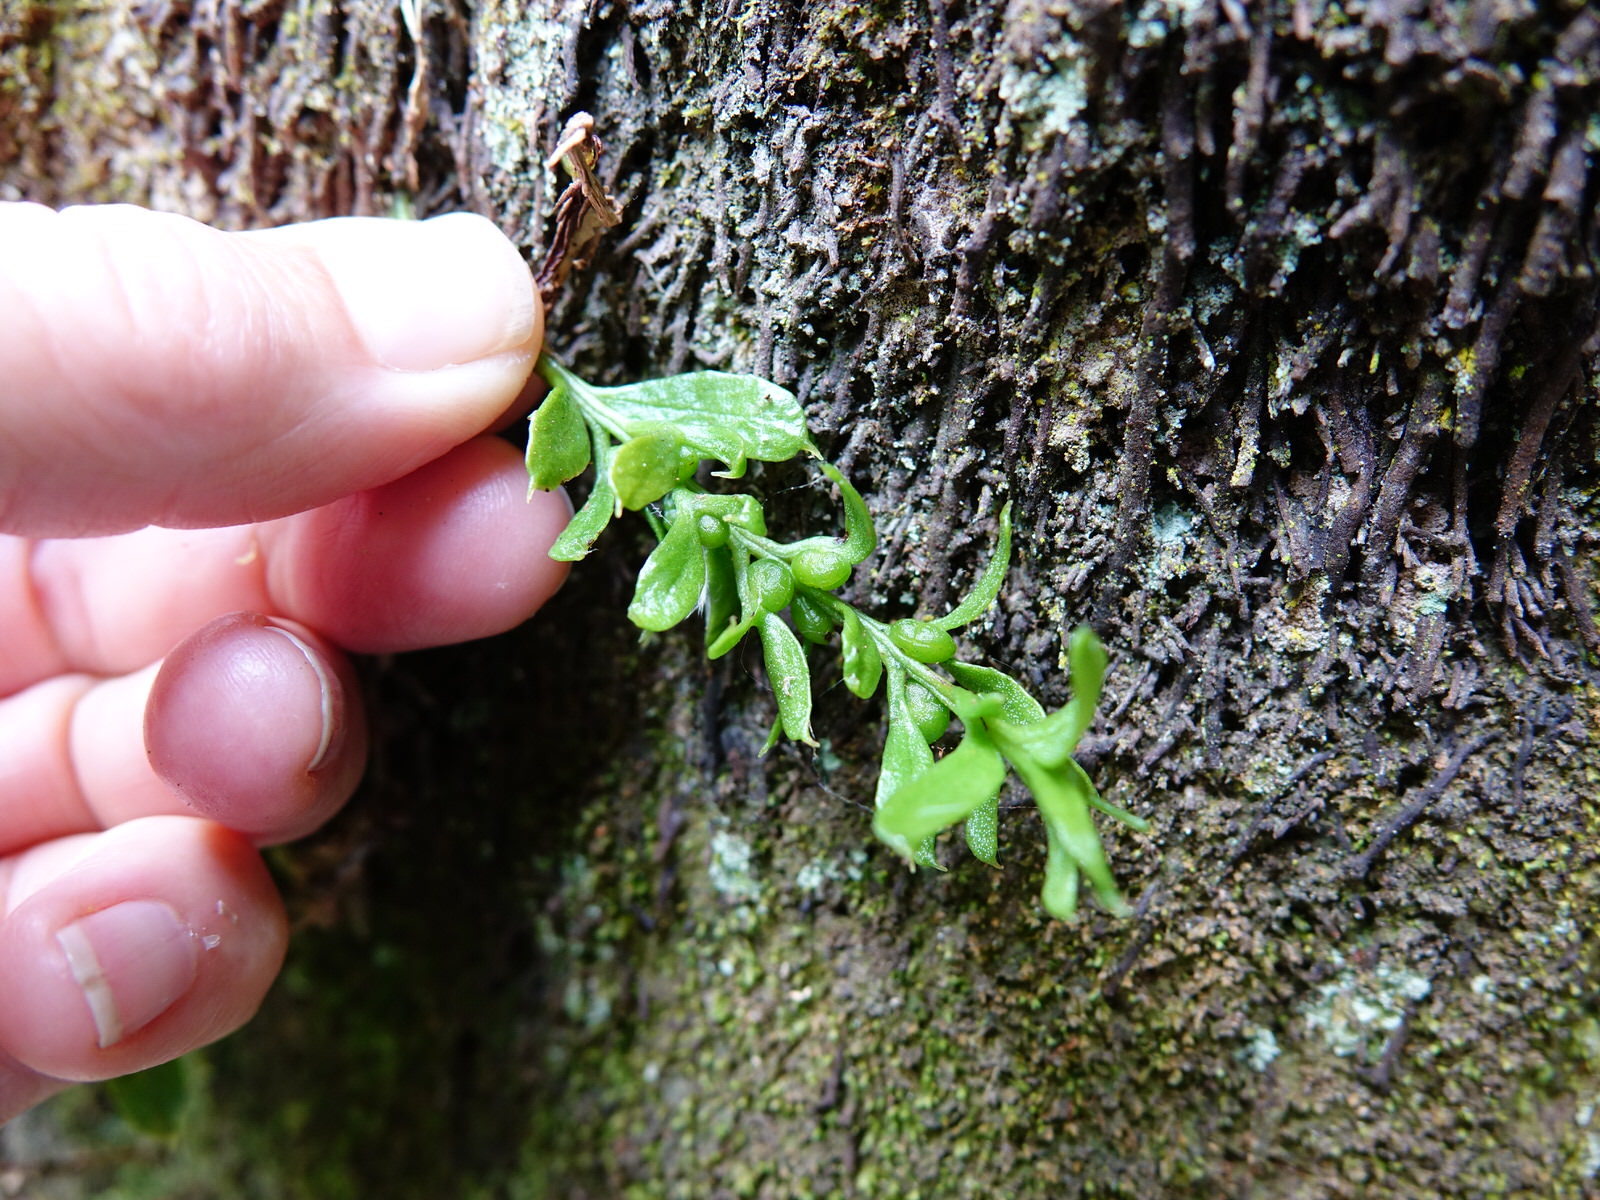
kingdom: Plantae
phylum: Tracheophyta
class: Polypodiopsida
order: Psilotales
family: Psilotaceae
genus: Tmesipteris
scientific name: Tmesipteris lanceolata
